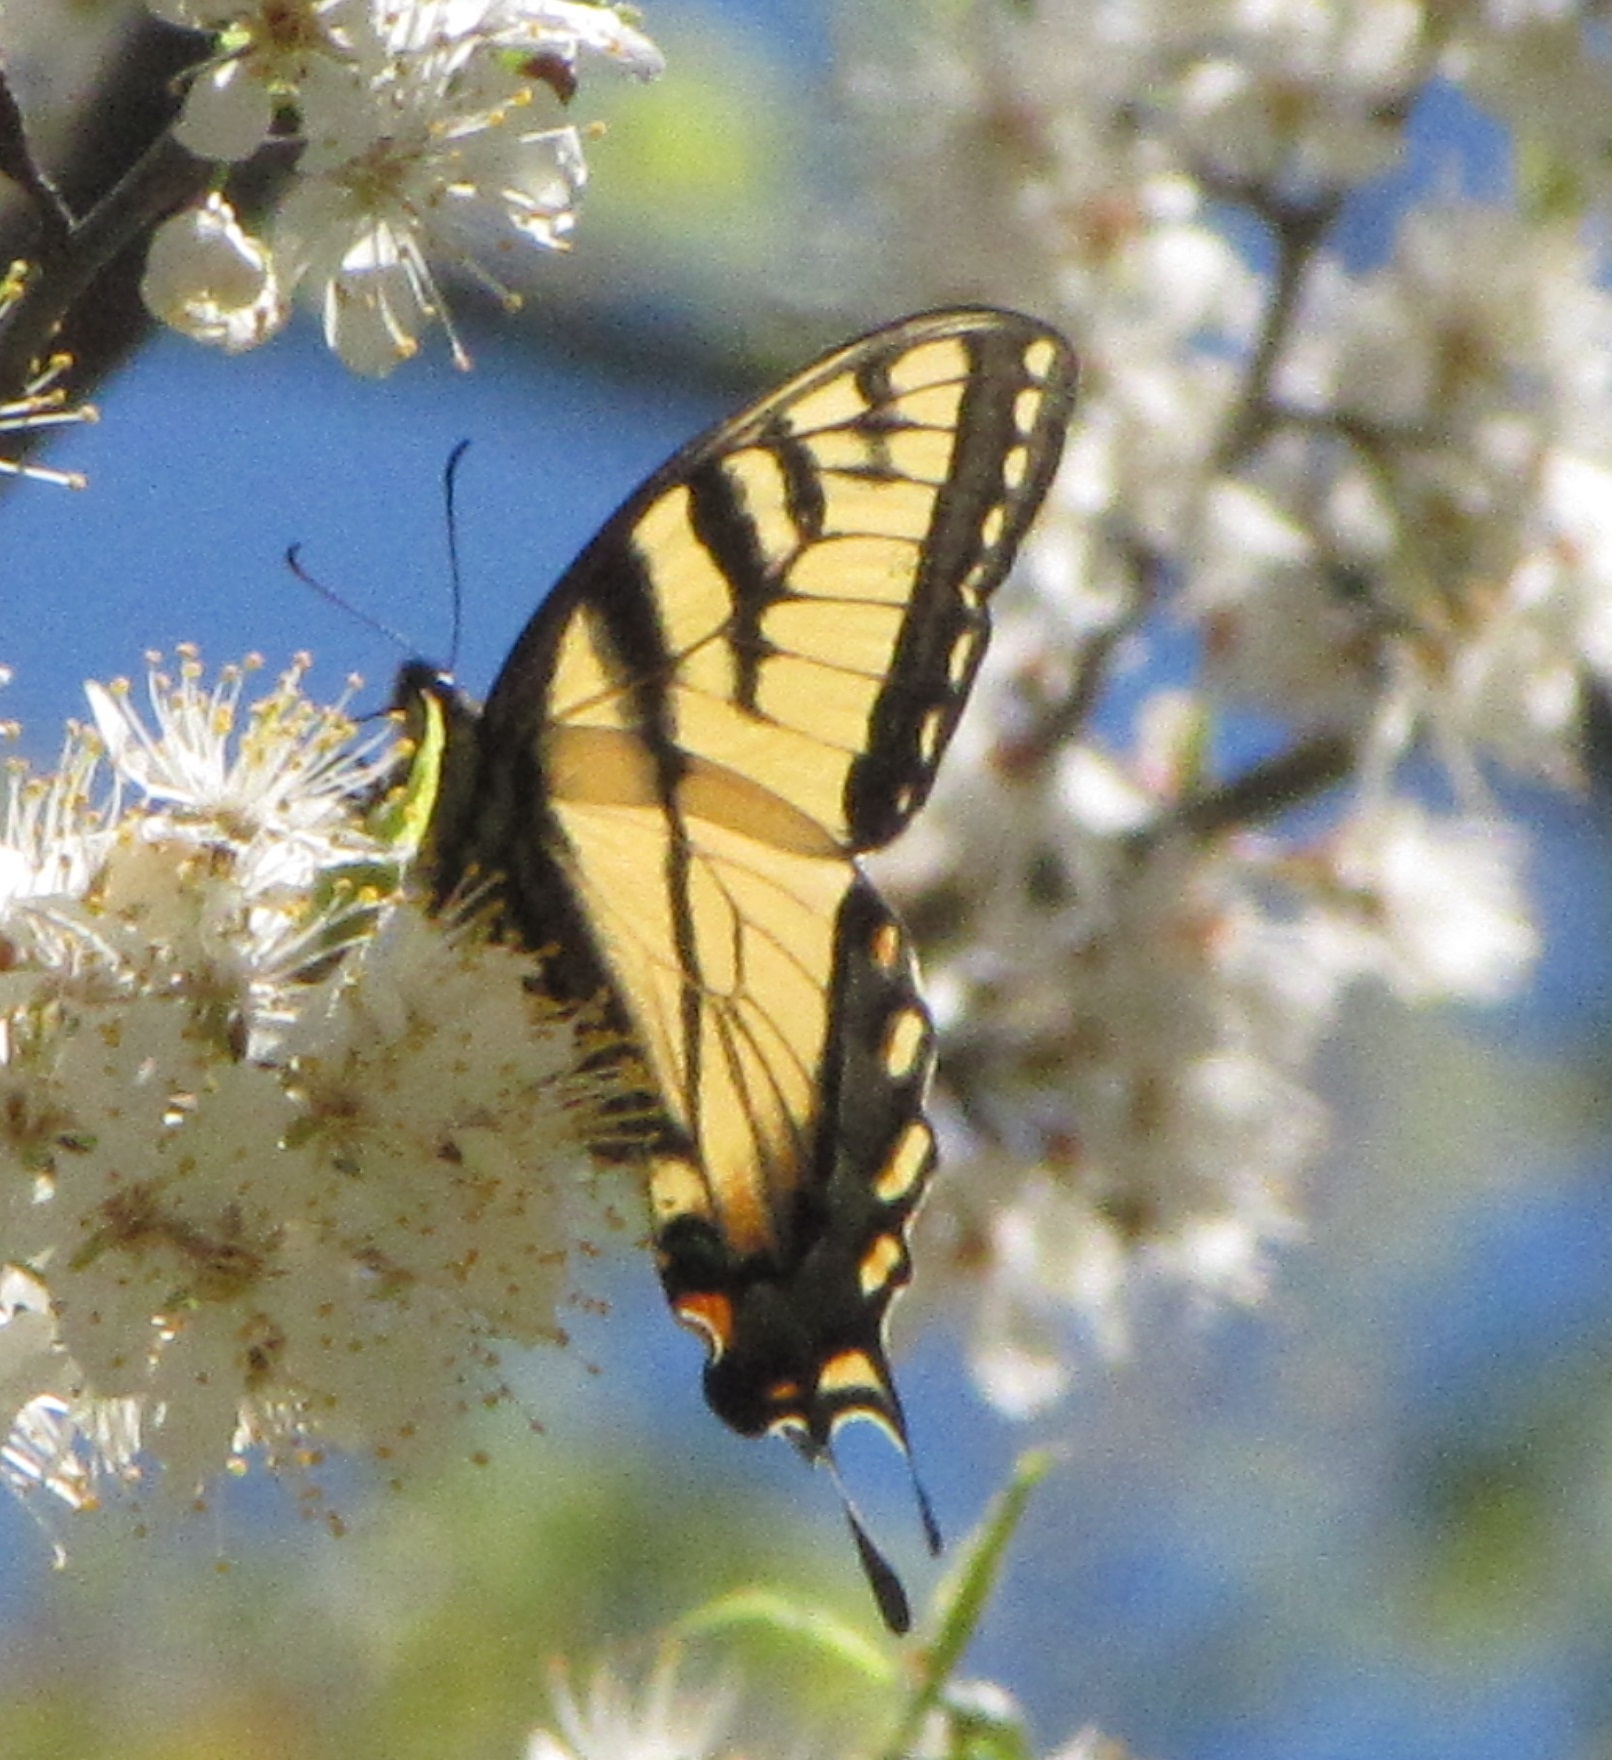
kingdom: Animalia
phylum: Arthropoda
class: Insecta
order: Lepidoptera
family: Papilionidae
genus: Papilio
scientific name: Papilio glaucus
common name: Tiger swallowtail
